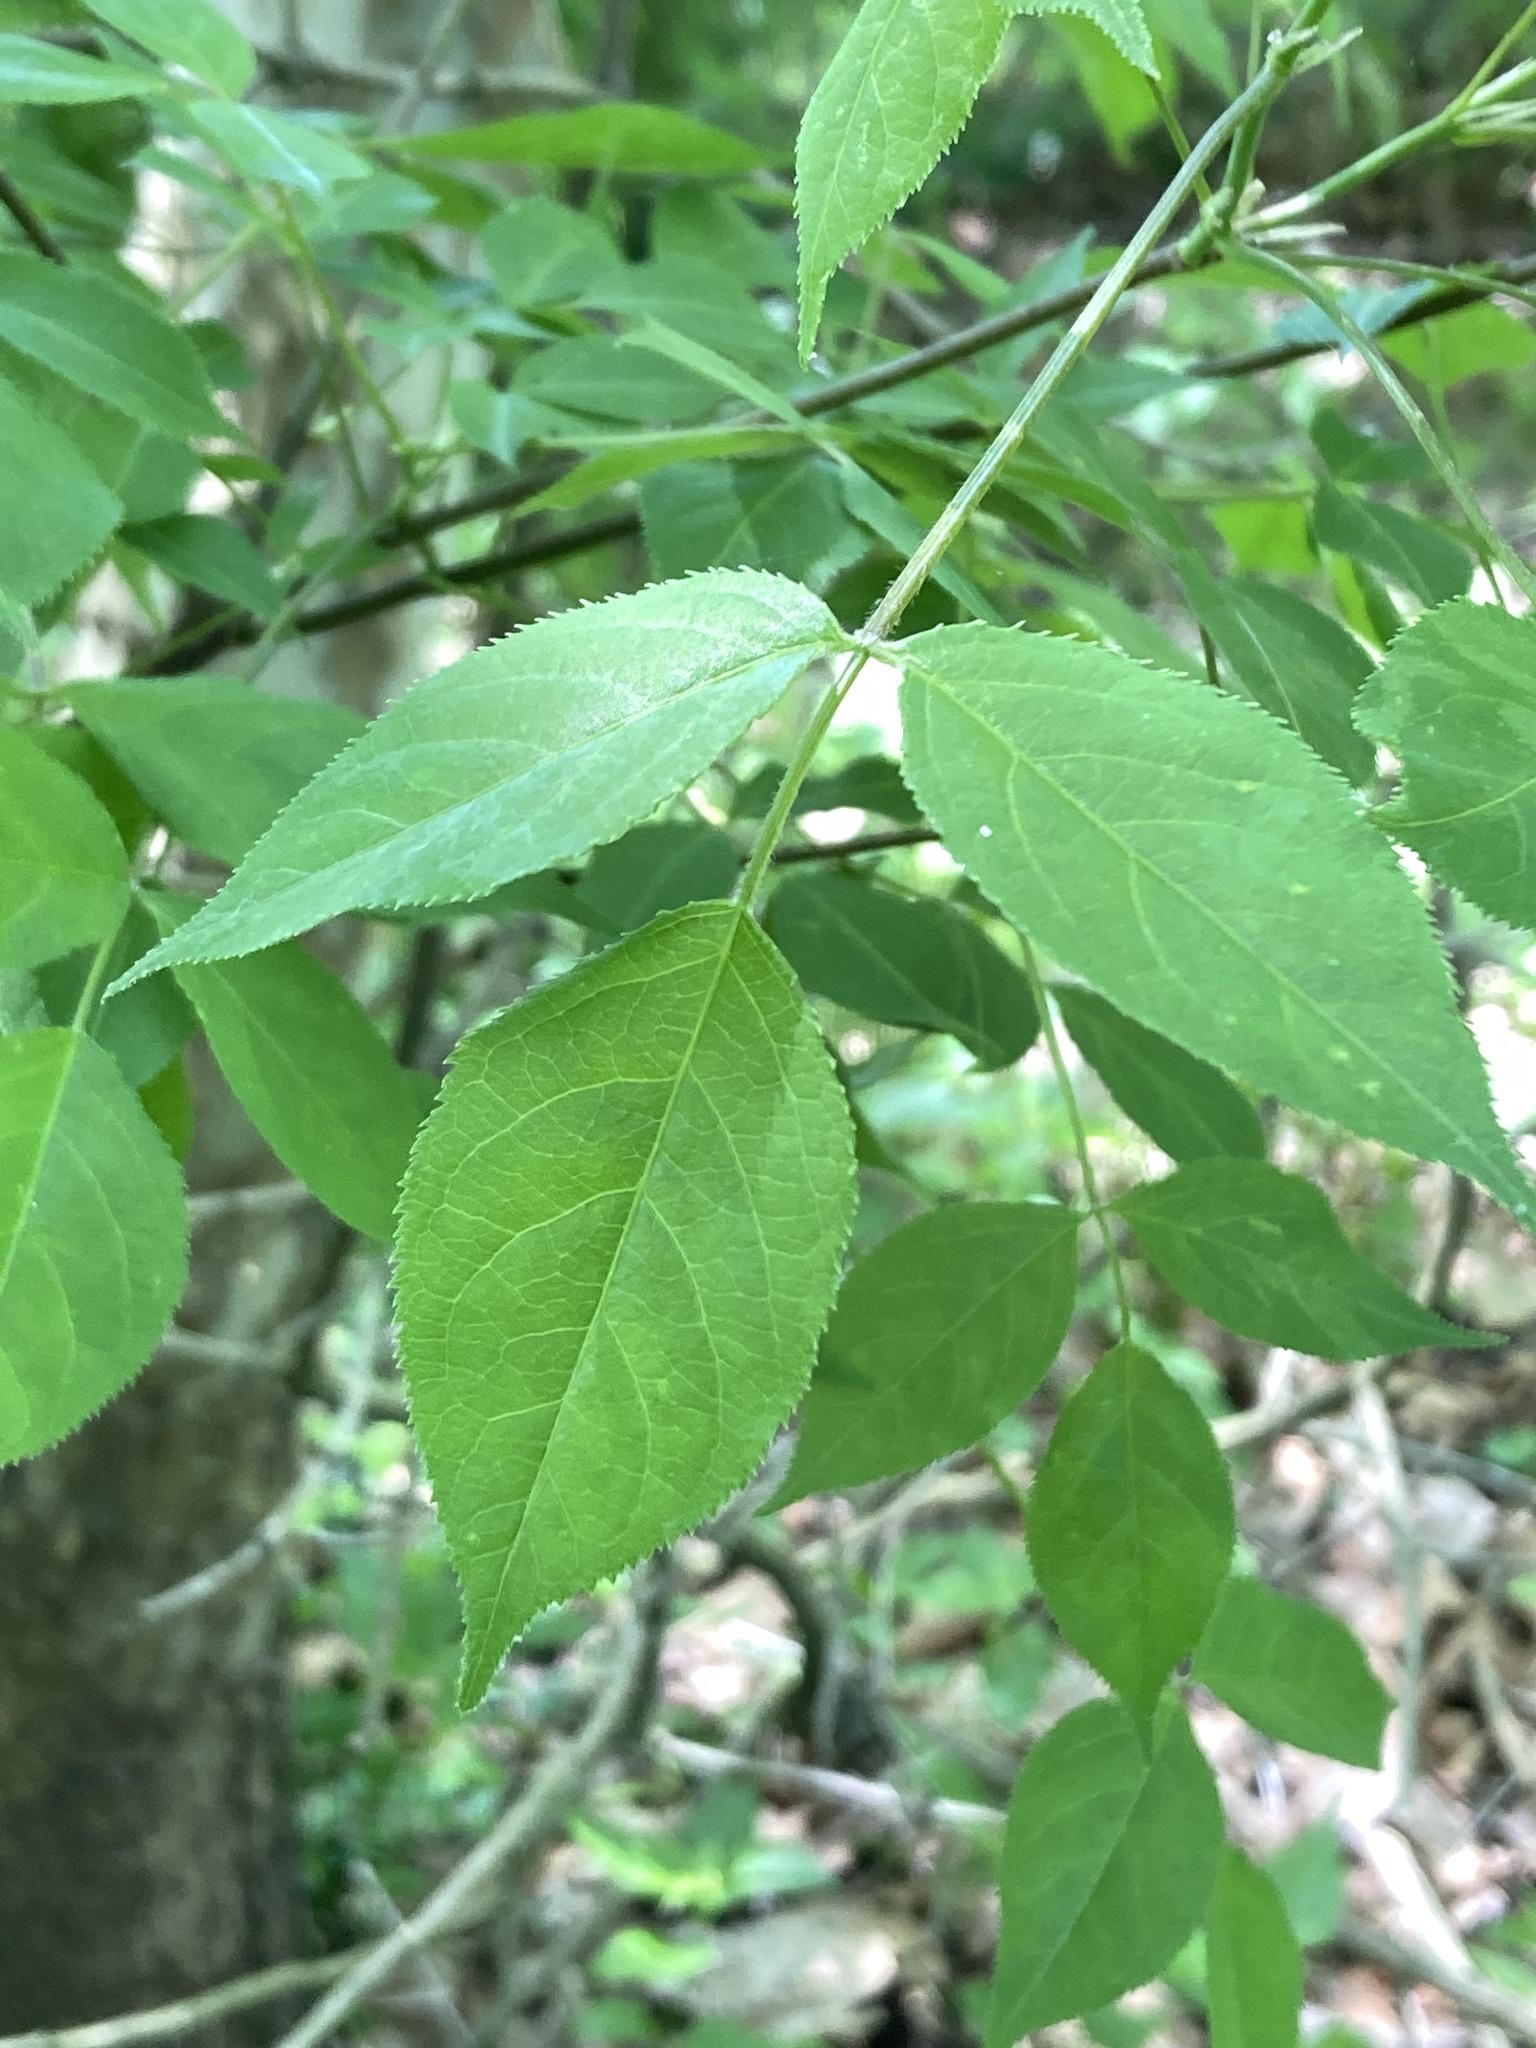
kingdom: Plantae
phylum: Tracheophyta
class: Magnoliopsida
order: Crossosomatales
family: Staphyleaceae
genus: Staphylea
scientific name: Staphylea trifolia
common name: American bladdernut
